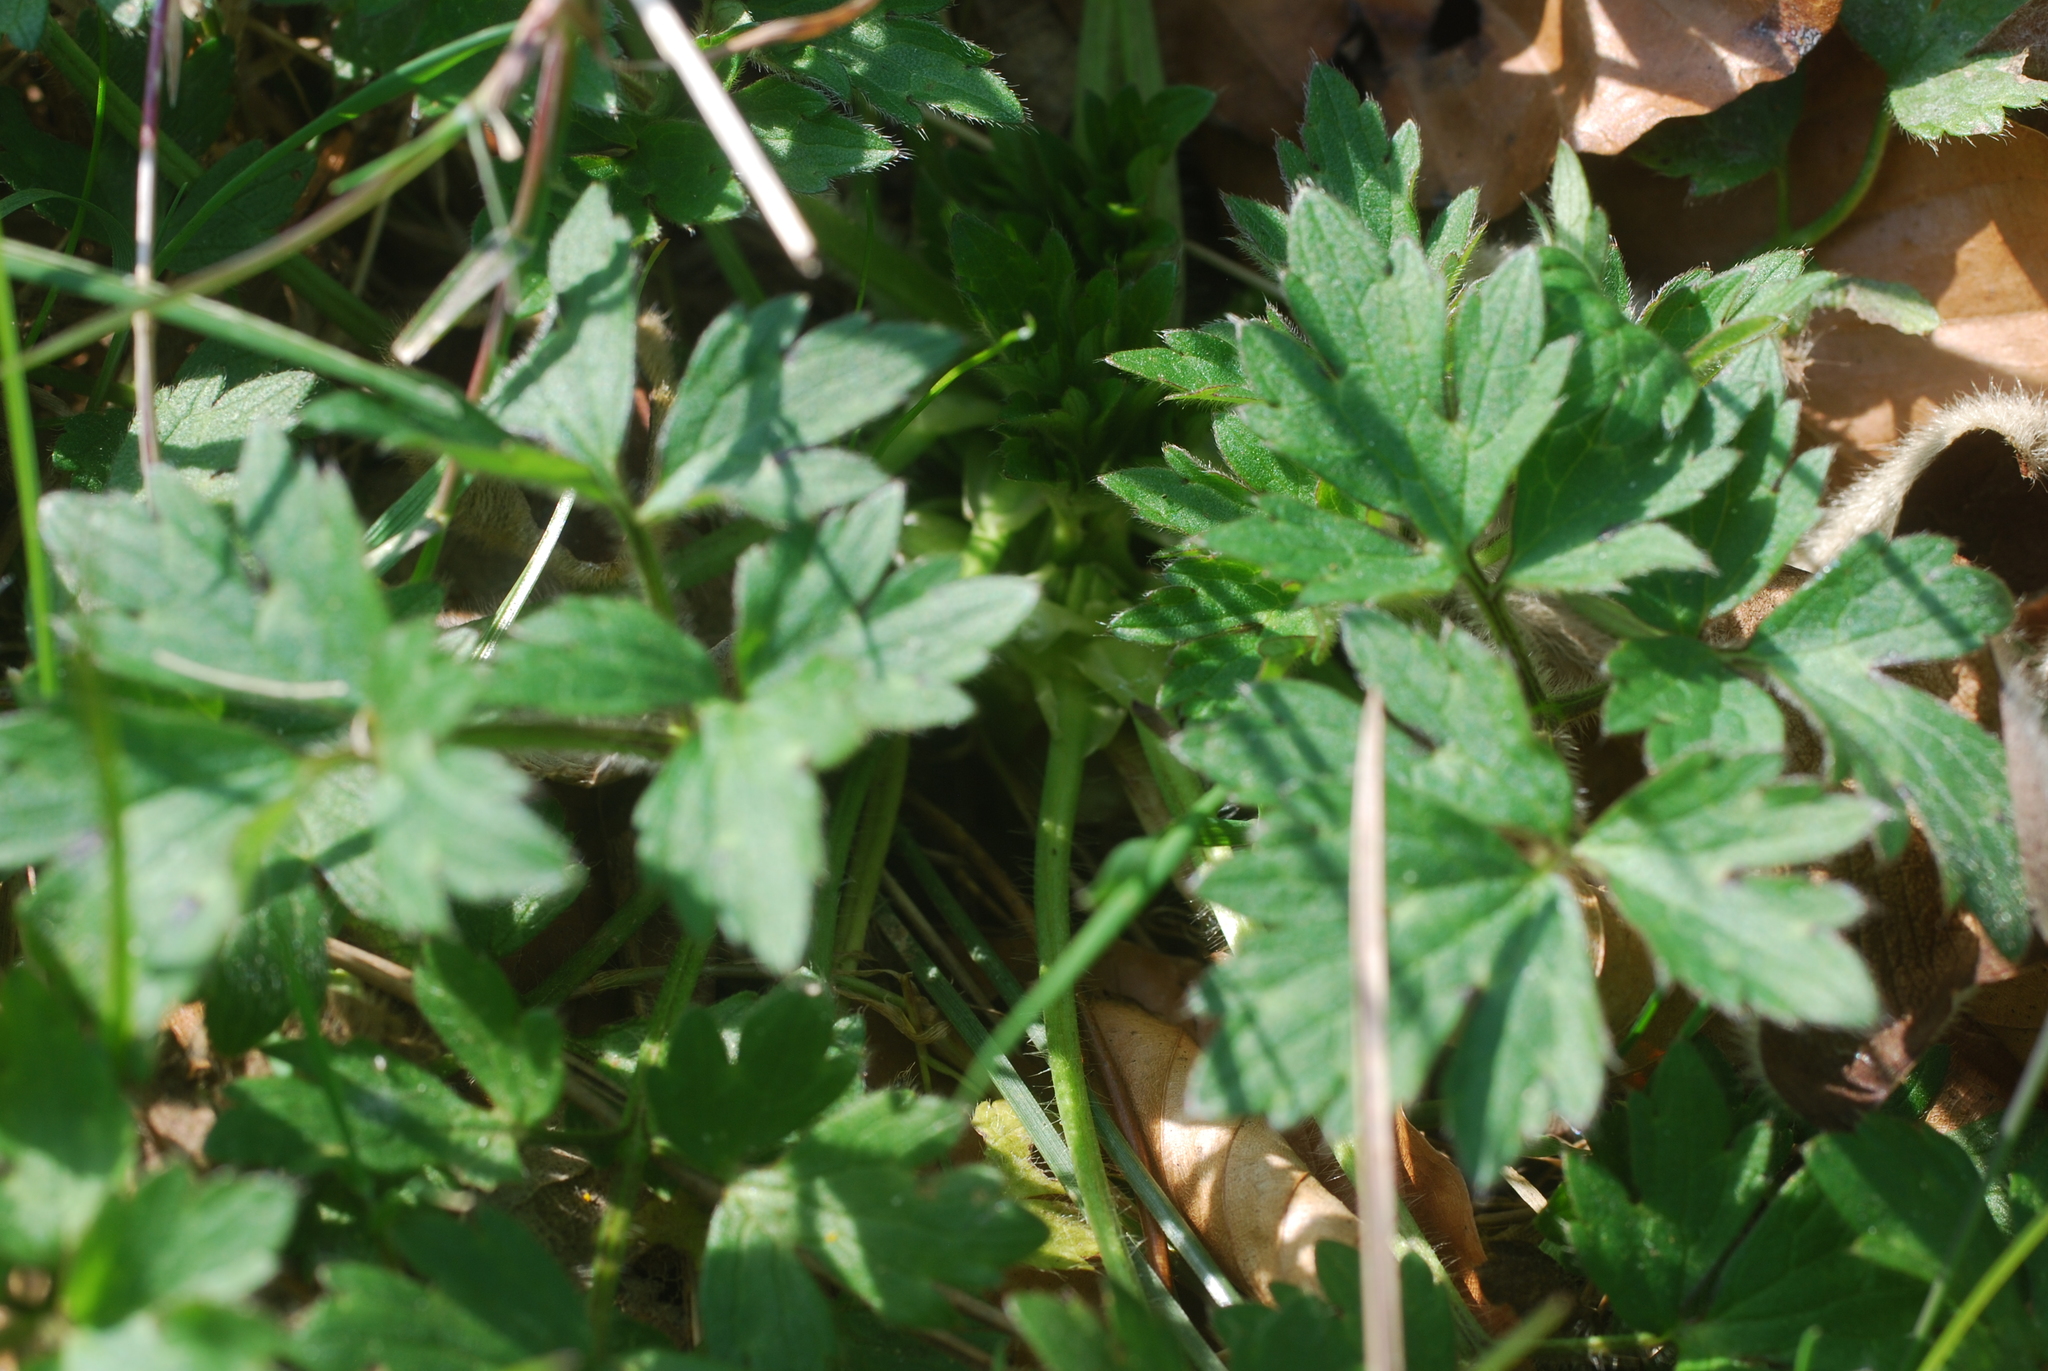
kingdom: Plantae
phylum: Tracheophyta
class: Magnoliopsida
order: Ranunculales
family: Ranunculaceae
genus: Ranunculus
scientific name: Ranunculus repens
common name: Creeping buttercup
